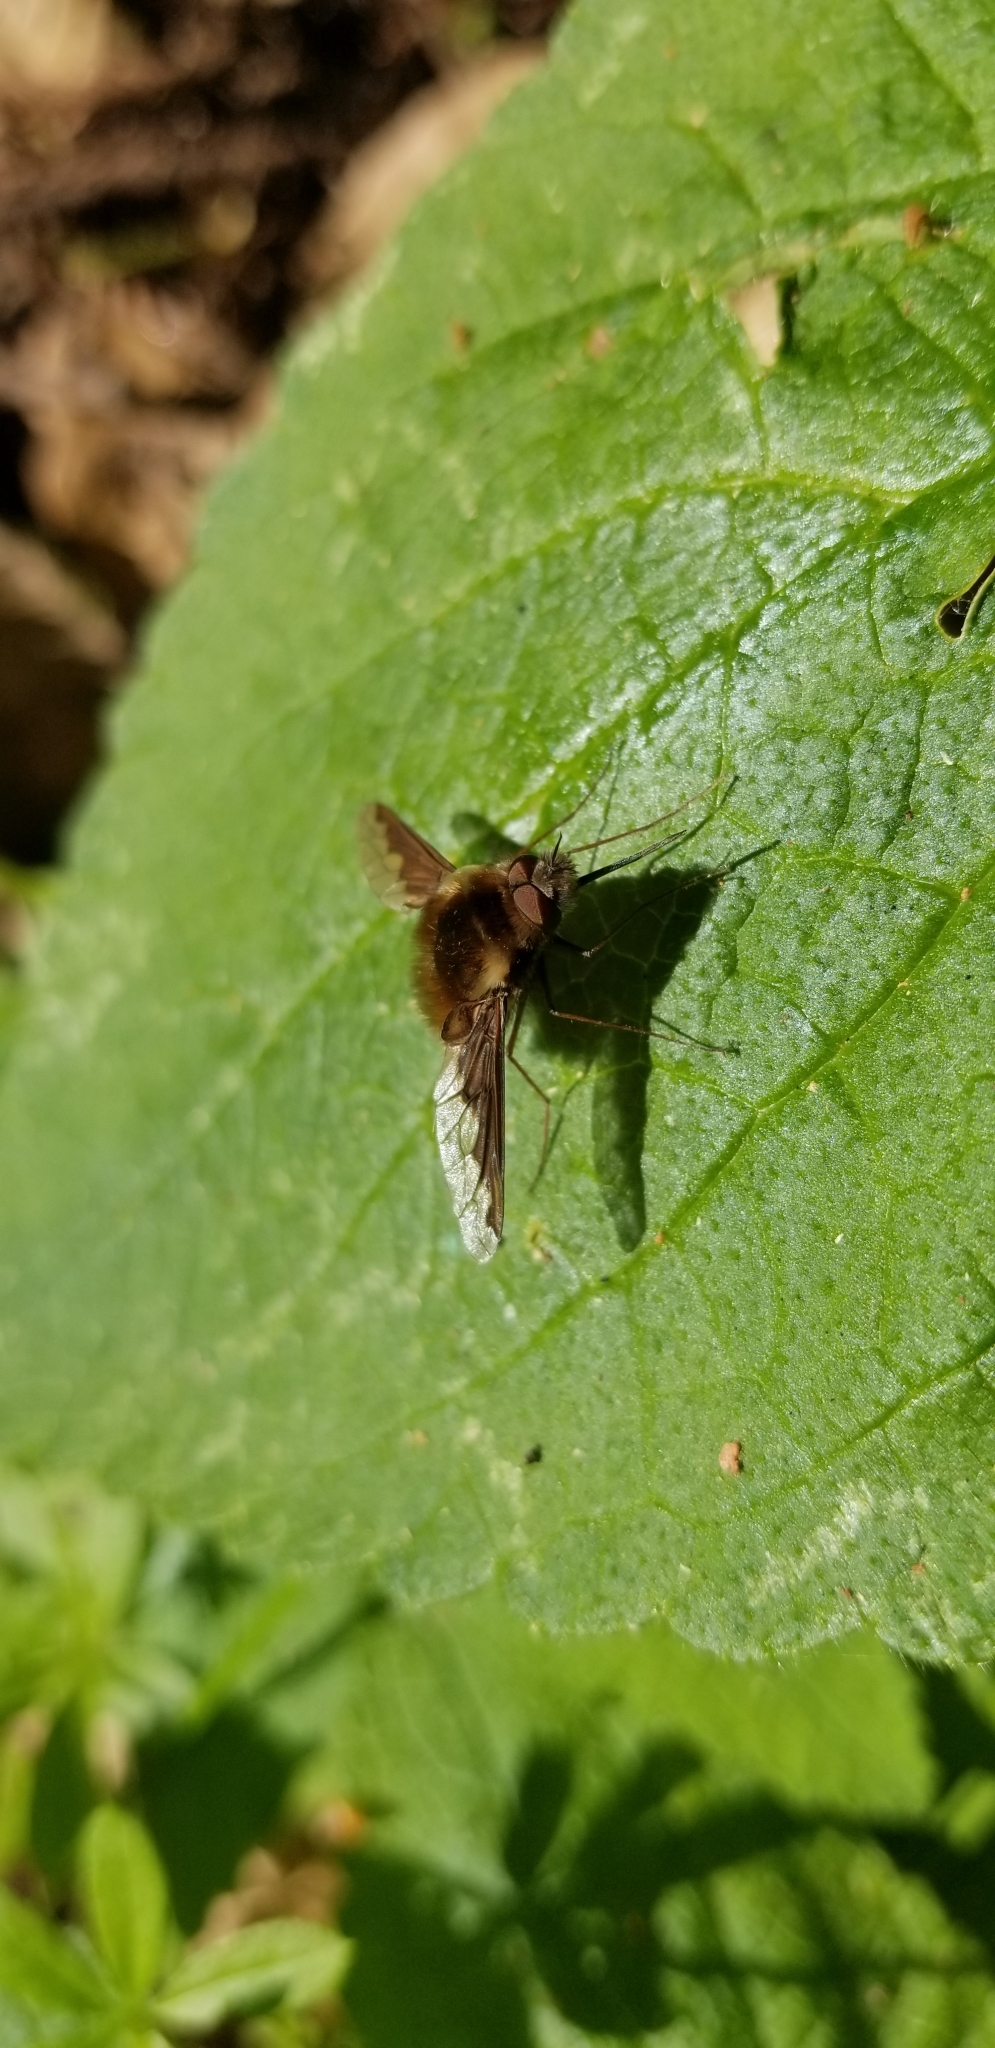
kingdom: Animalia
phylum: Arthropoda
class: Insecta
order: Diptera
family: Bombyliidae
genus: Bombylius
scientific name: Bombylius major
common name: Bee fly
